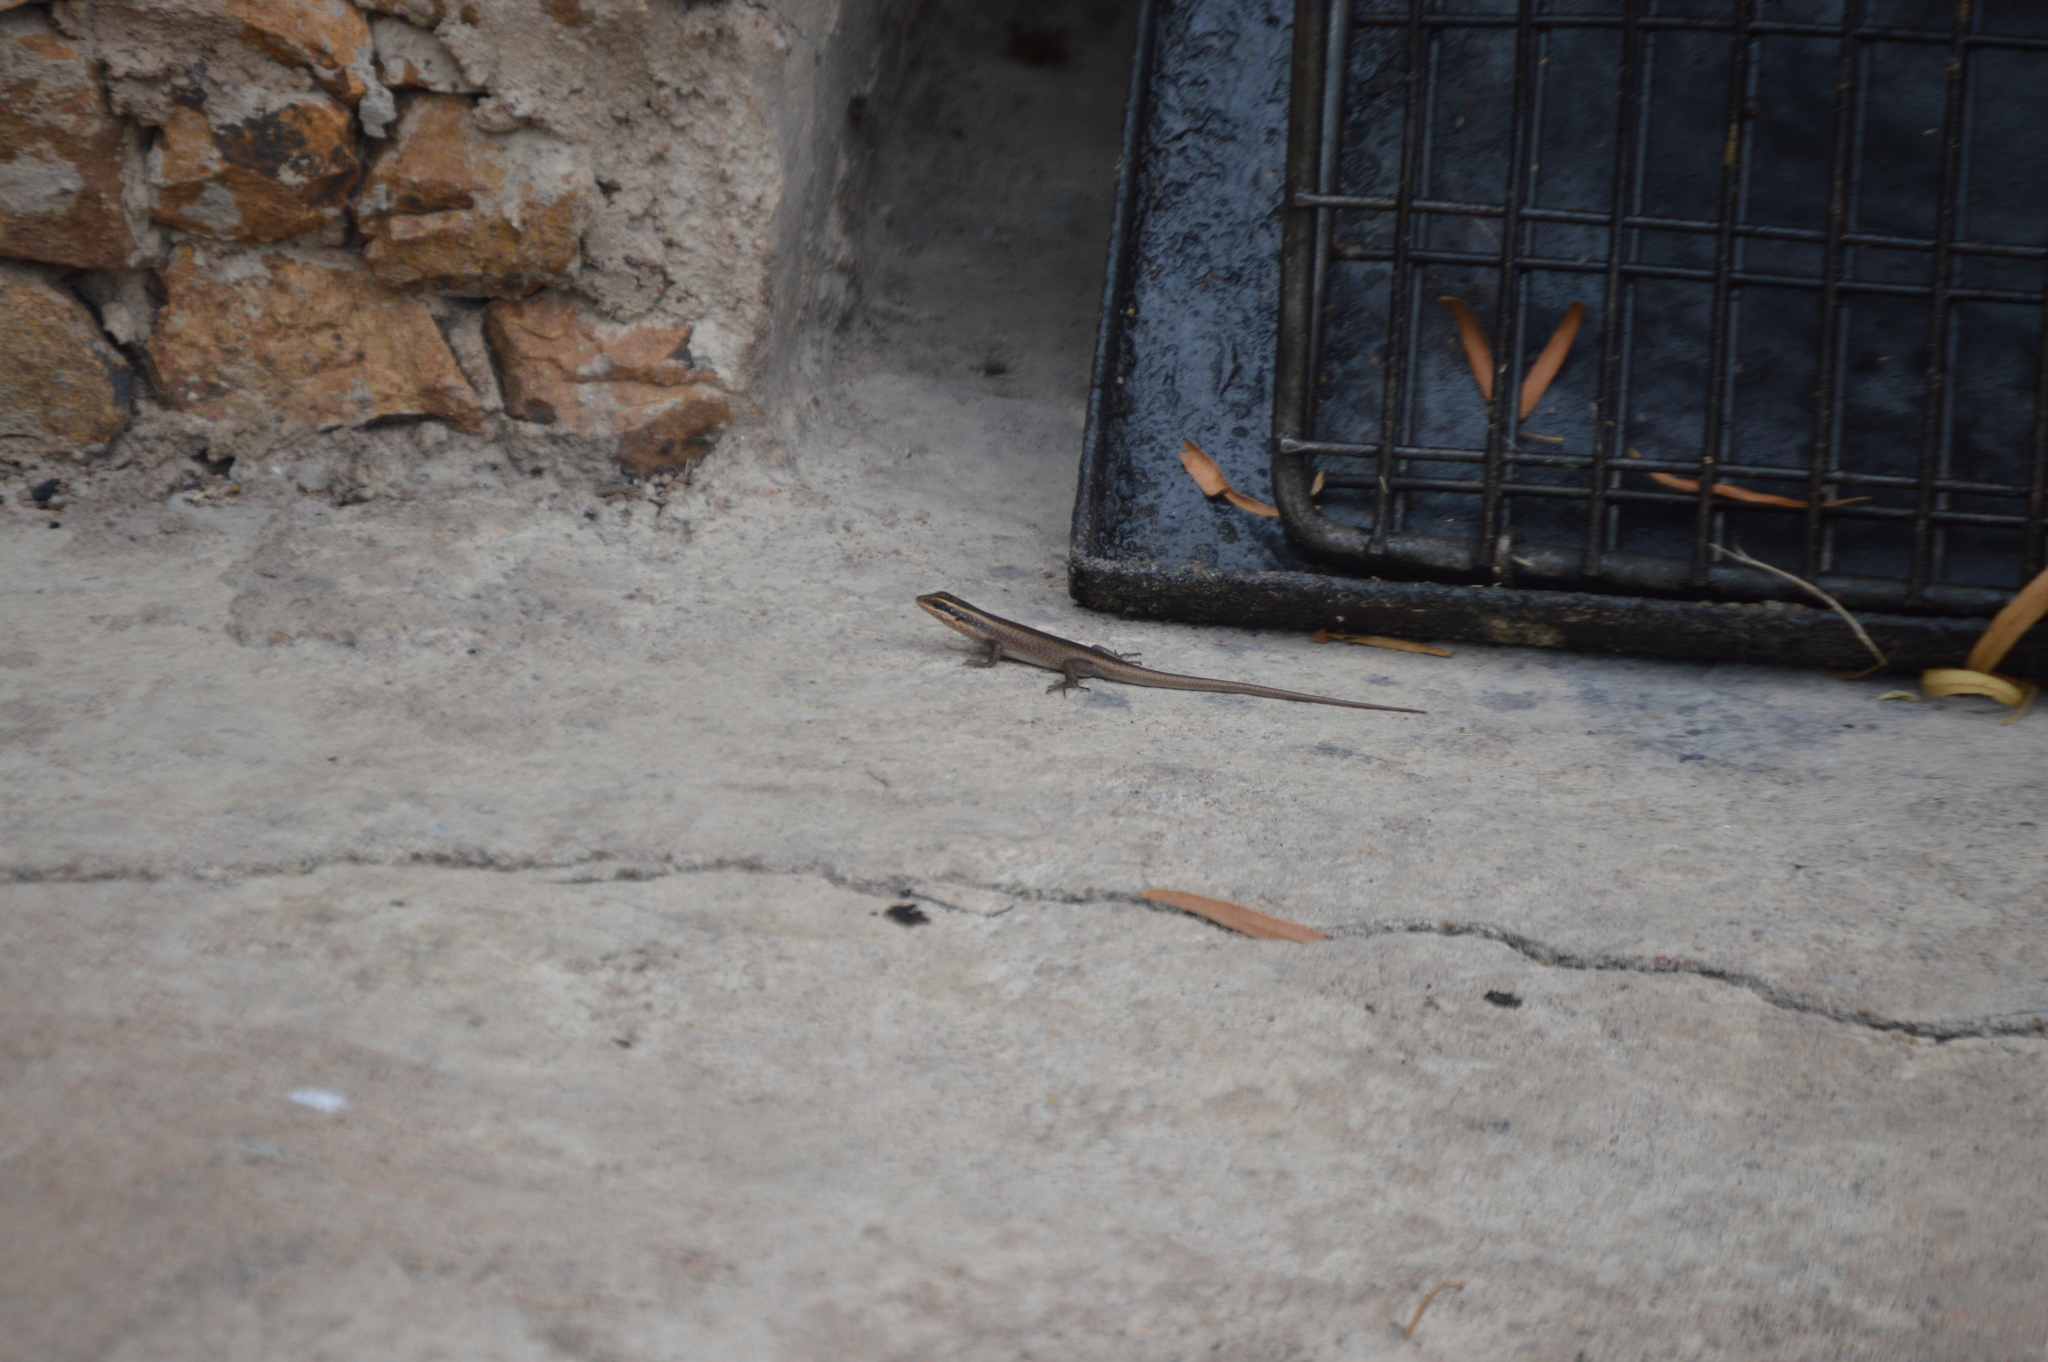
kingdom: Animalia
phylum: Chordata
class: Squamata
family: Scincidae
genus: Trachylepis
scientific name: Trachylepis punctatissima
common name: Montane speckled skink
